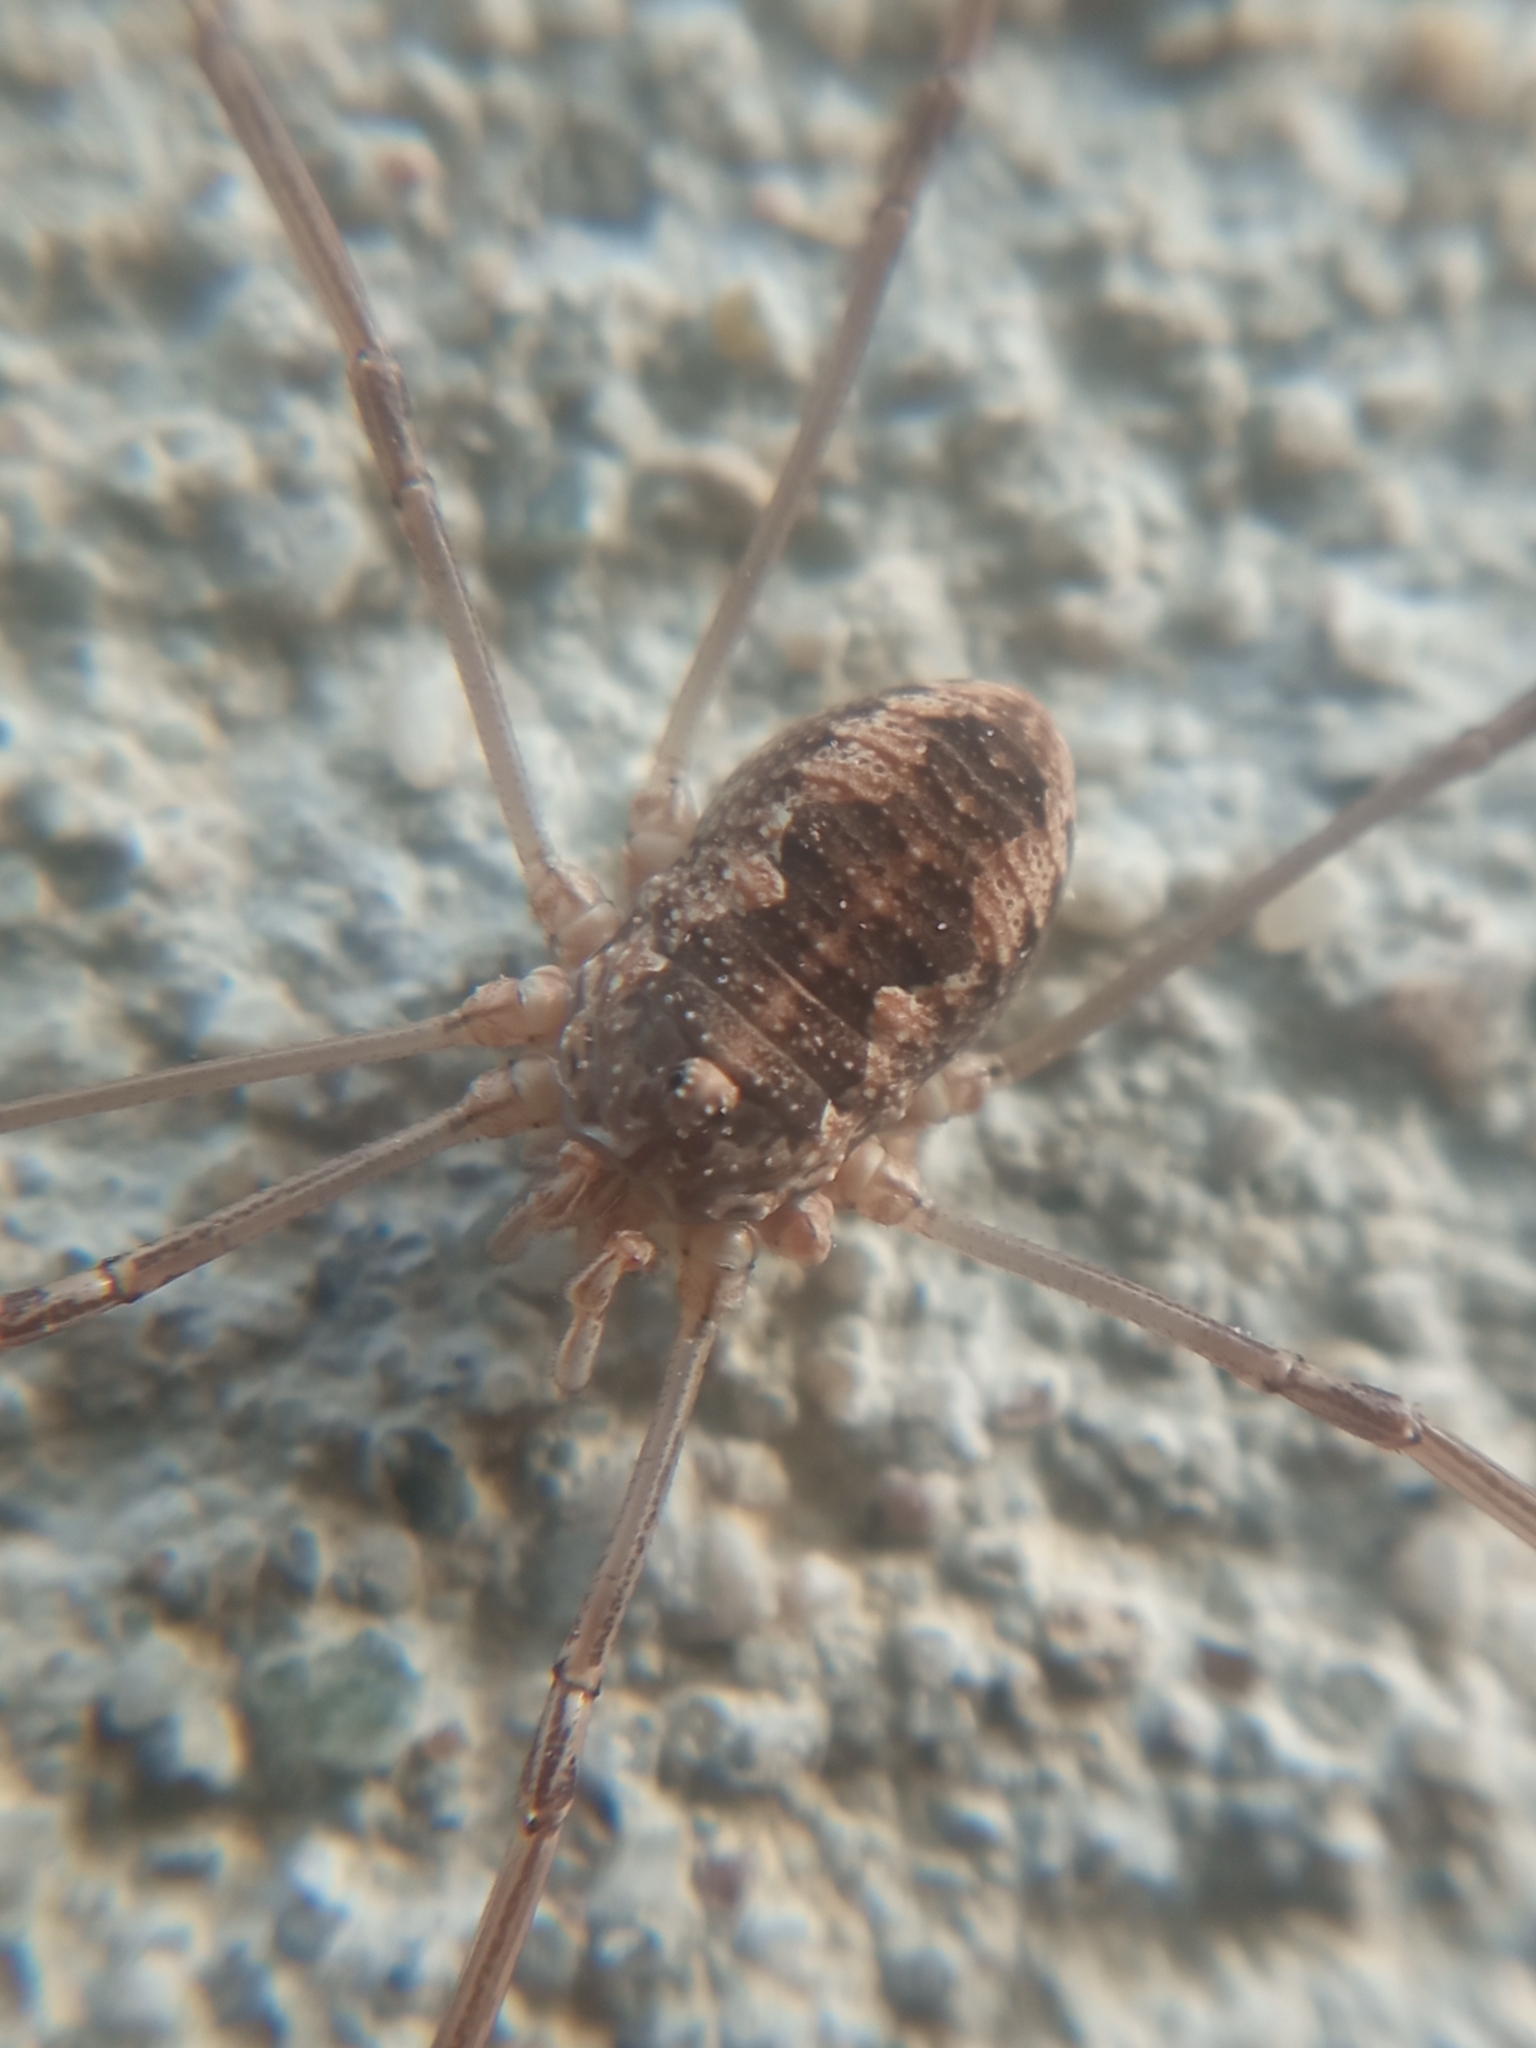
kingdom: Animalia
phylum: Arthropoda
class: Arachnida
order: Opiliones
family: Phalangiidae
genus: Phalangium
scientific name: Phalangium opilio
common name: Daddy longleg
